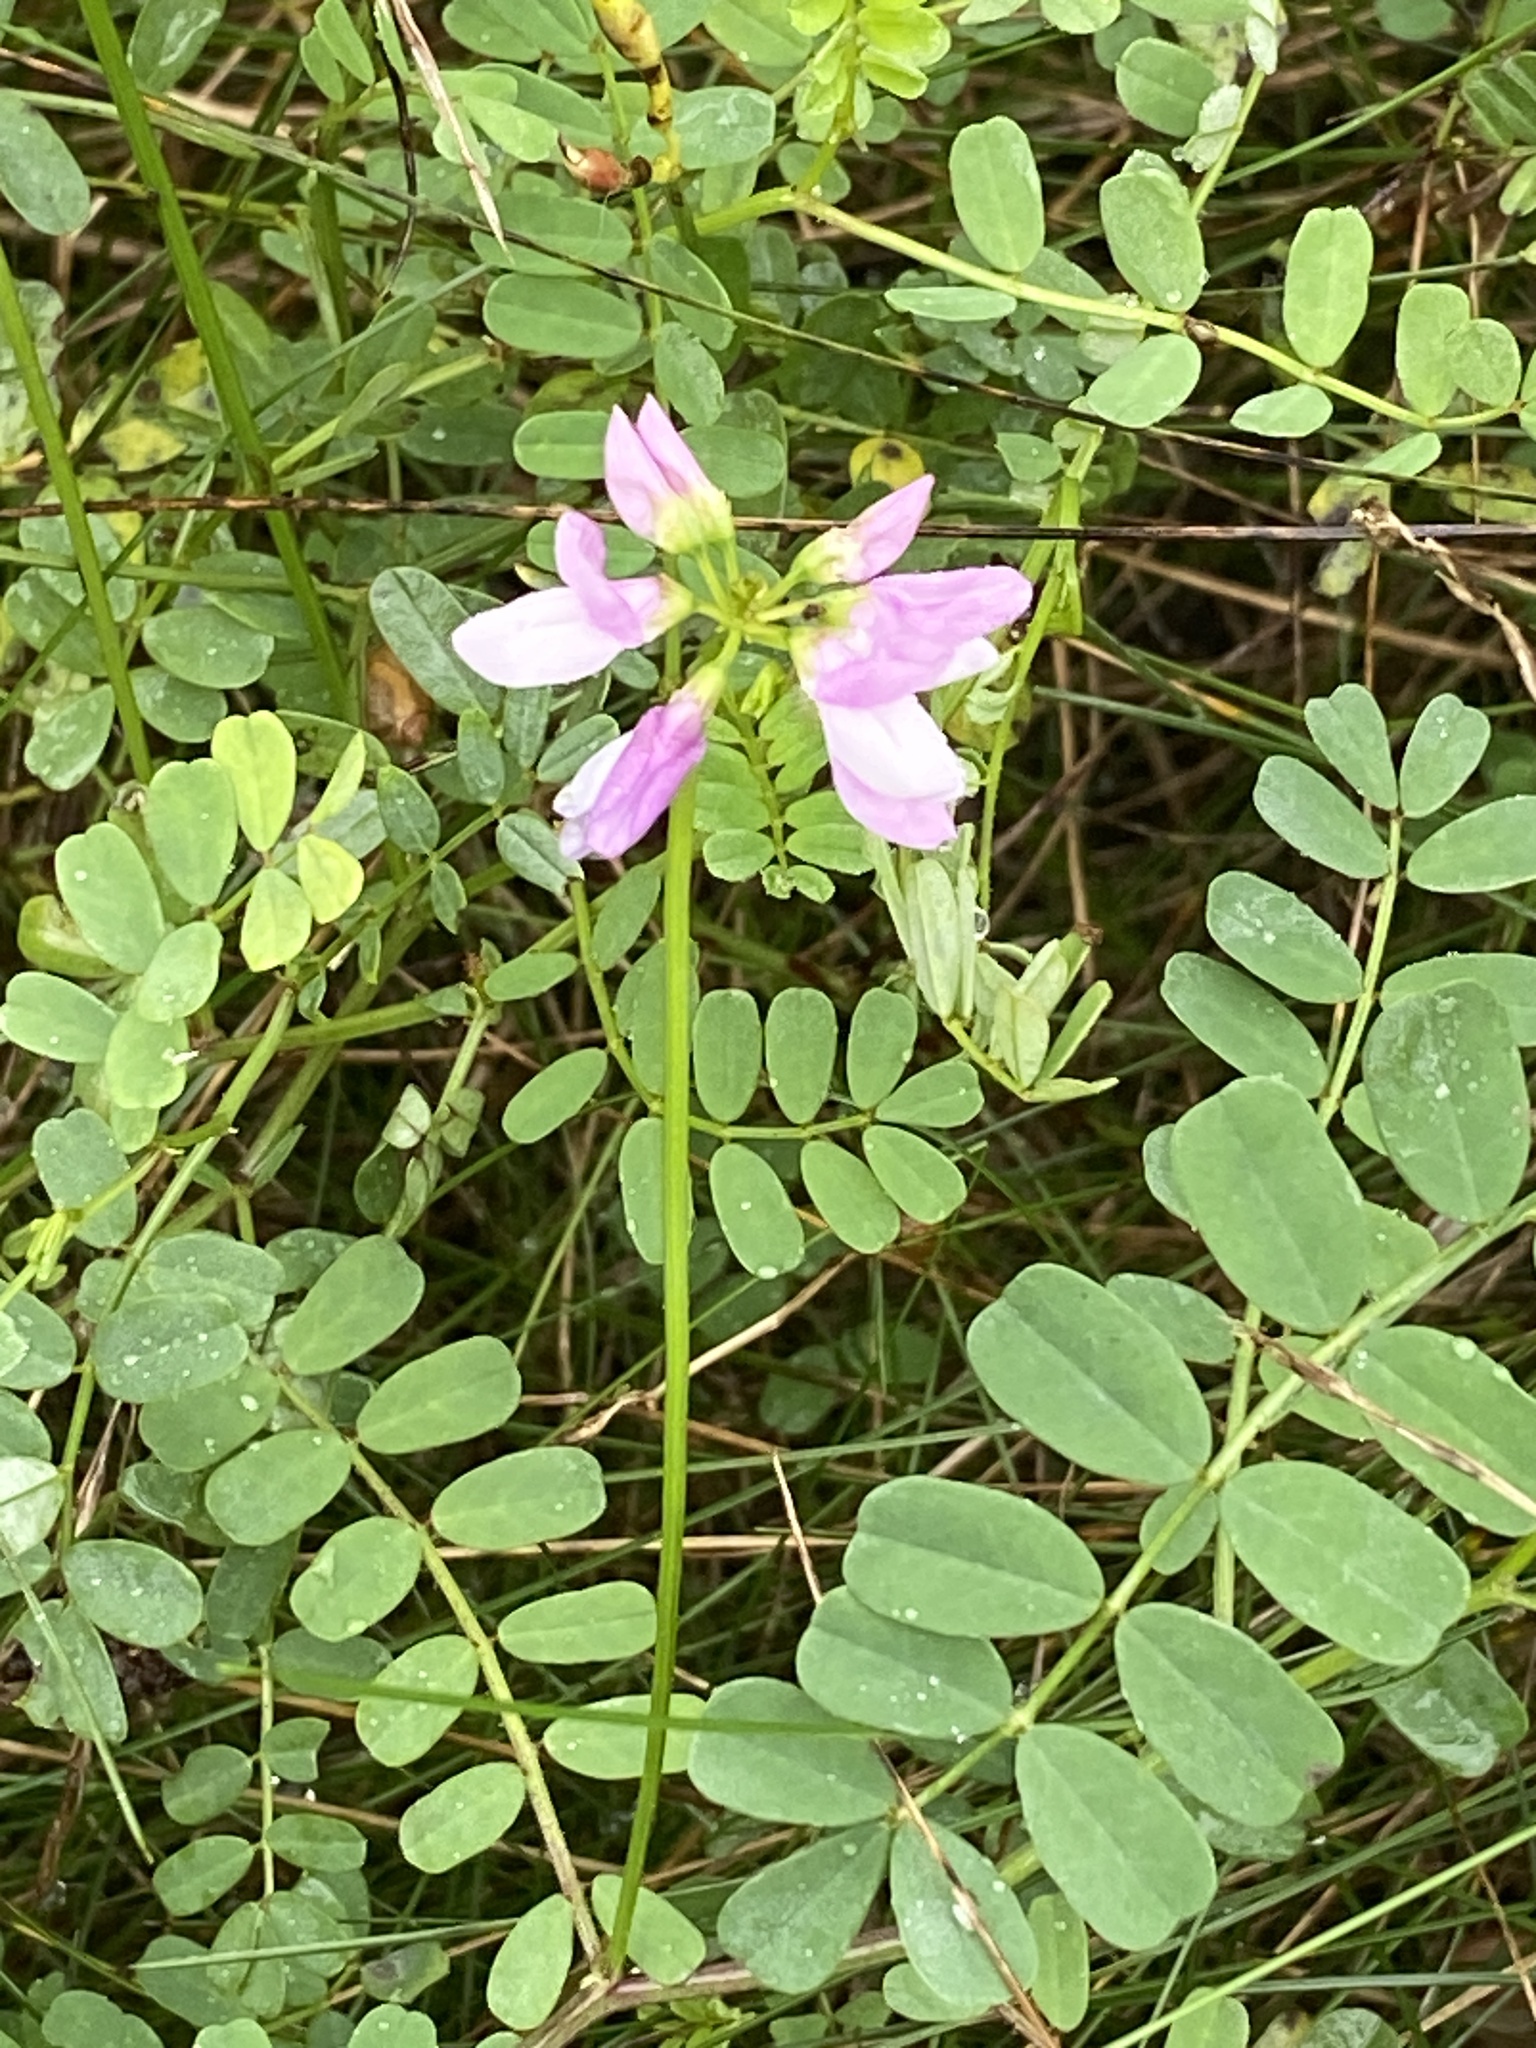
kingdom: Plantae
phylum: Tracheophyta
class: Magnoliopsida
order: Fabales
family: Fabaceae
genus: Coronilla
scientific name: Coronilla varia
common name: Crownvetch
